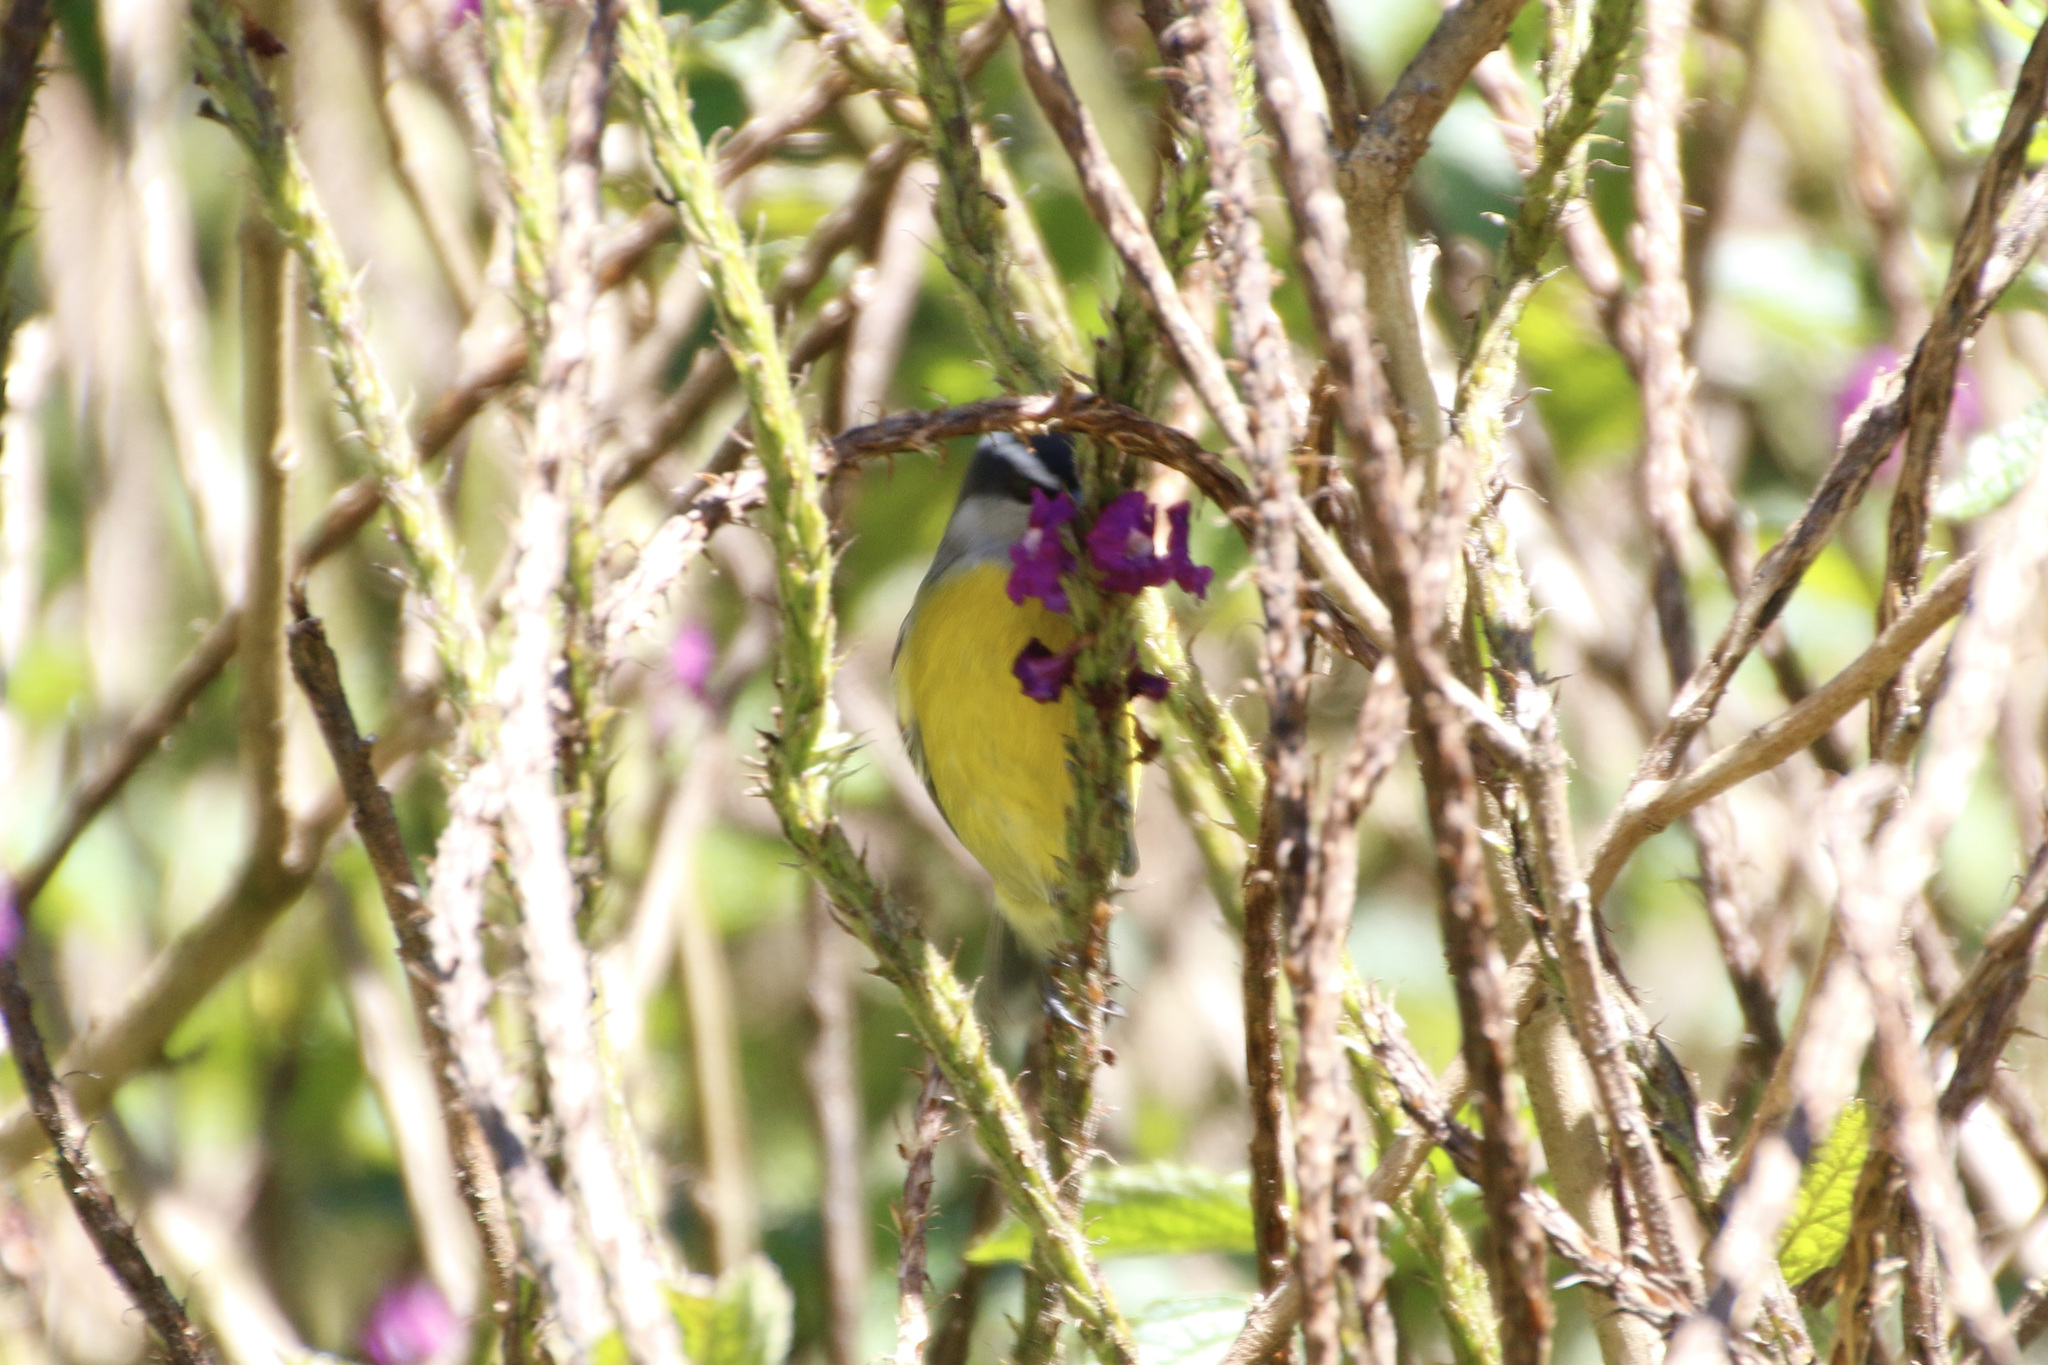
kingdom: Animalia
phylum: Chordata
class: Aves
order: Passeriformes
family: Thraupidae
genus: Coereba
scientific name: Coereba flaveola
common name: Bananaquit
